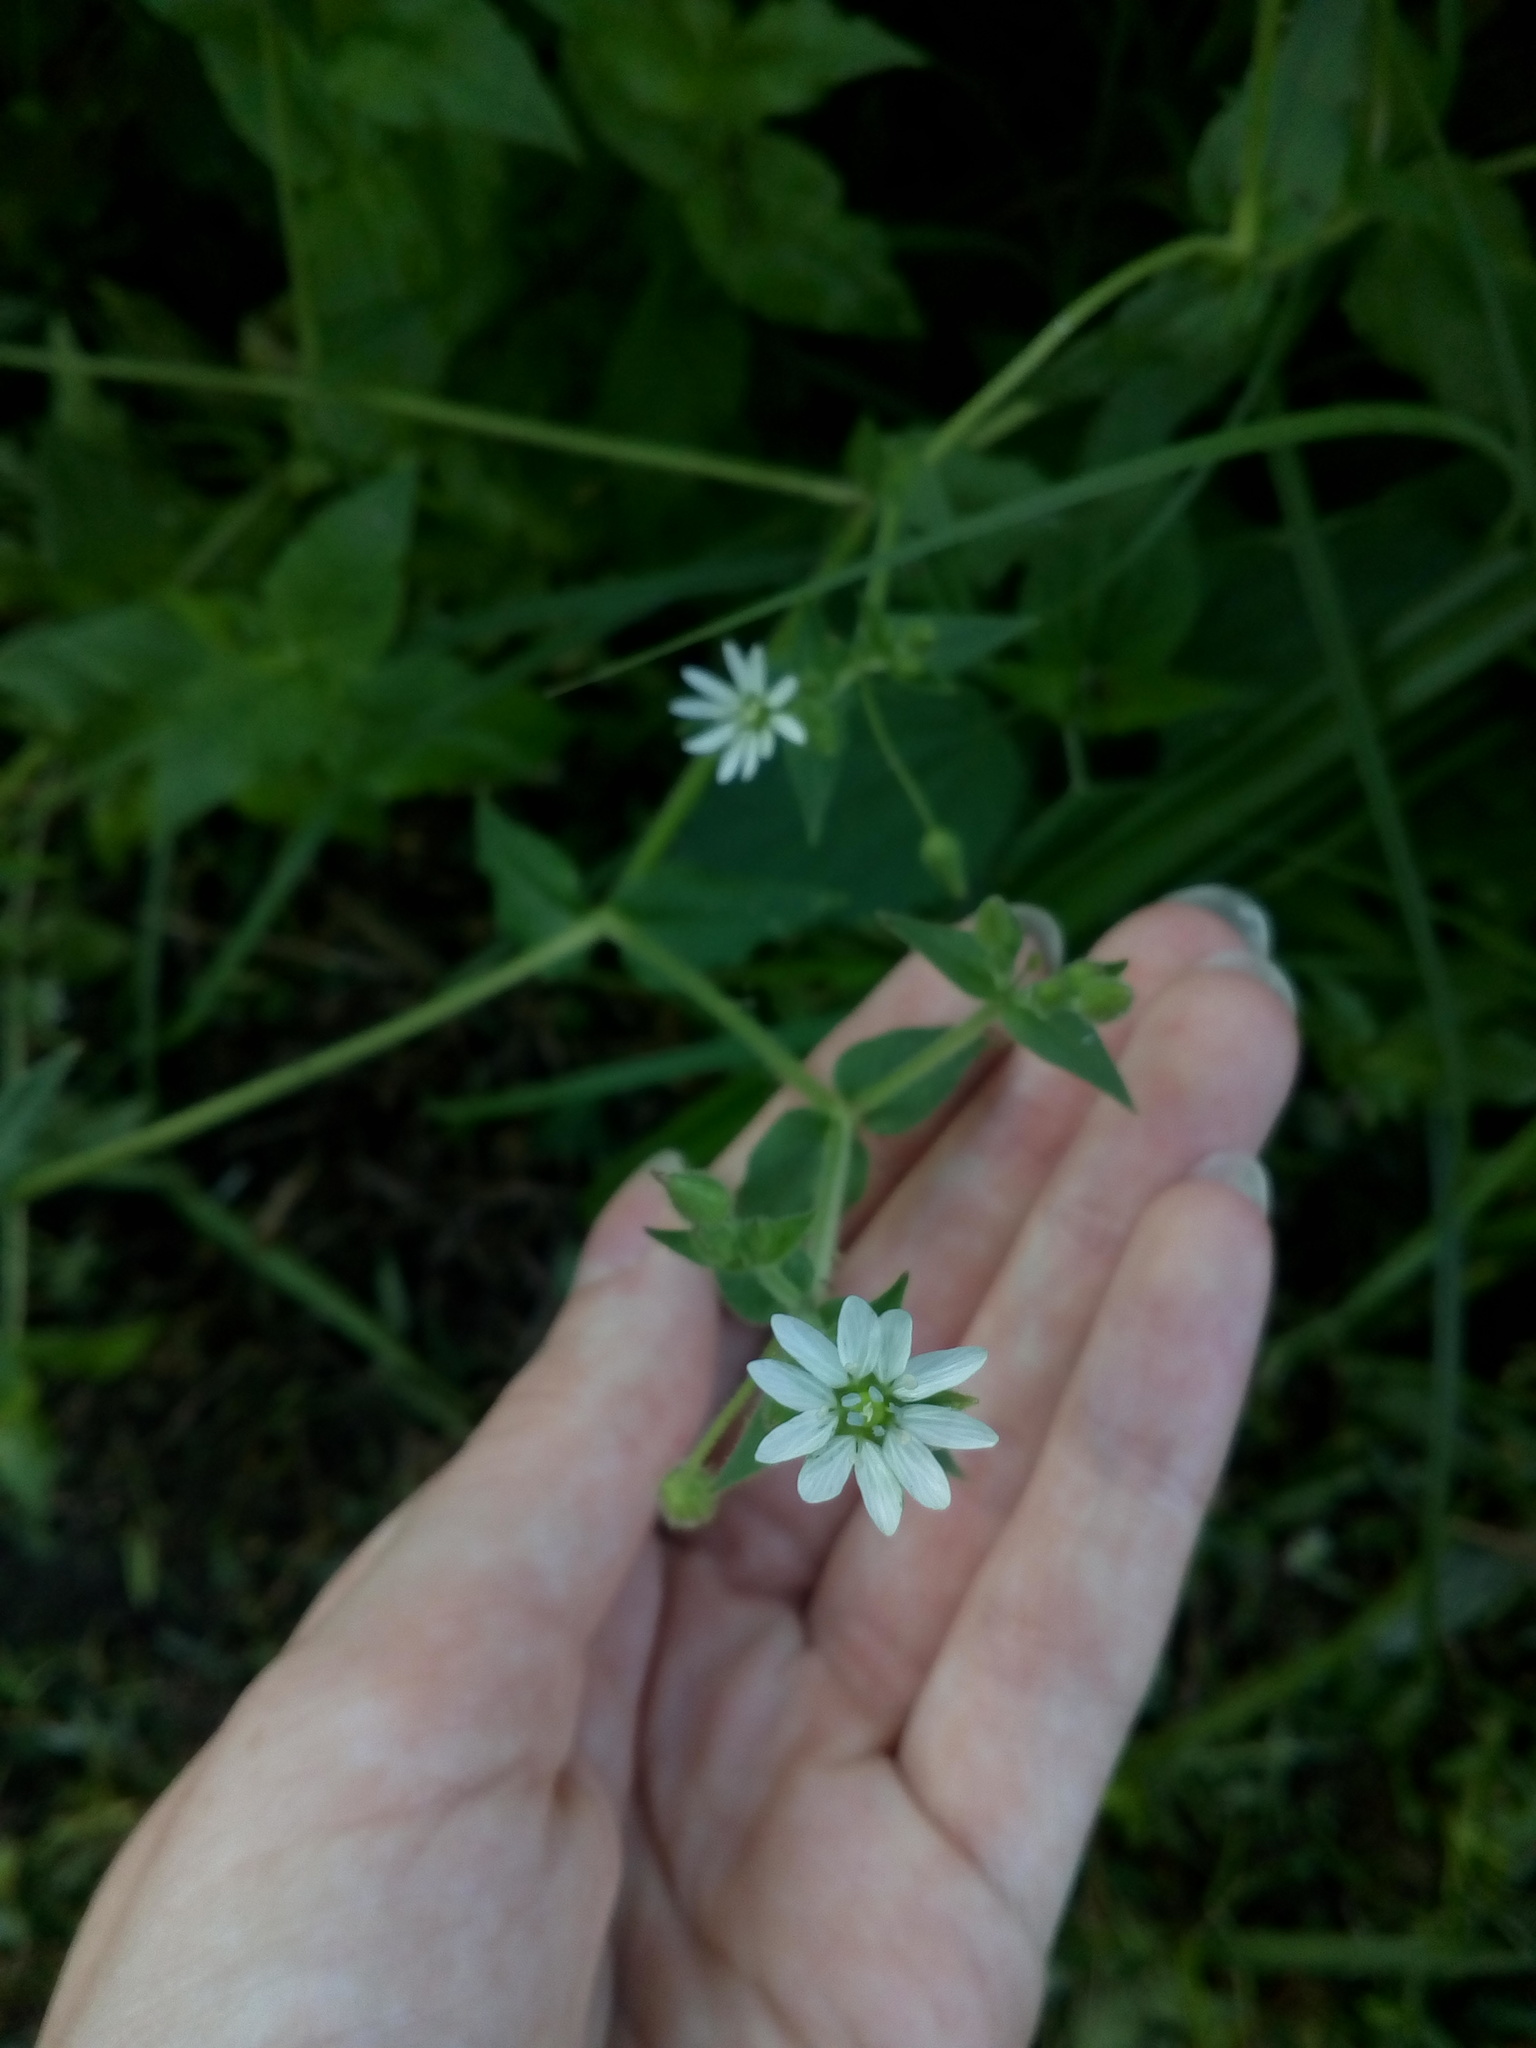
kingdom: Plantae
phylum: Tracheophyta
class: Magnoliopsida
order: Caryophyllales
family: Caryophyllaceae
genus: Stellaria
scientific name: Stellaria aquatica
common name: Water chickweed
